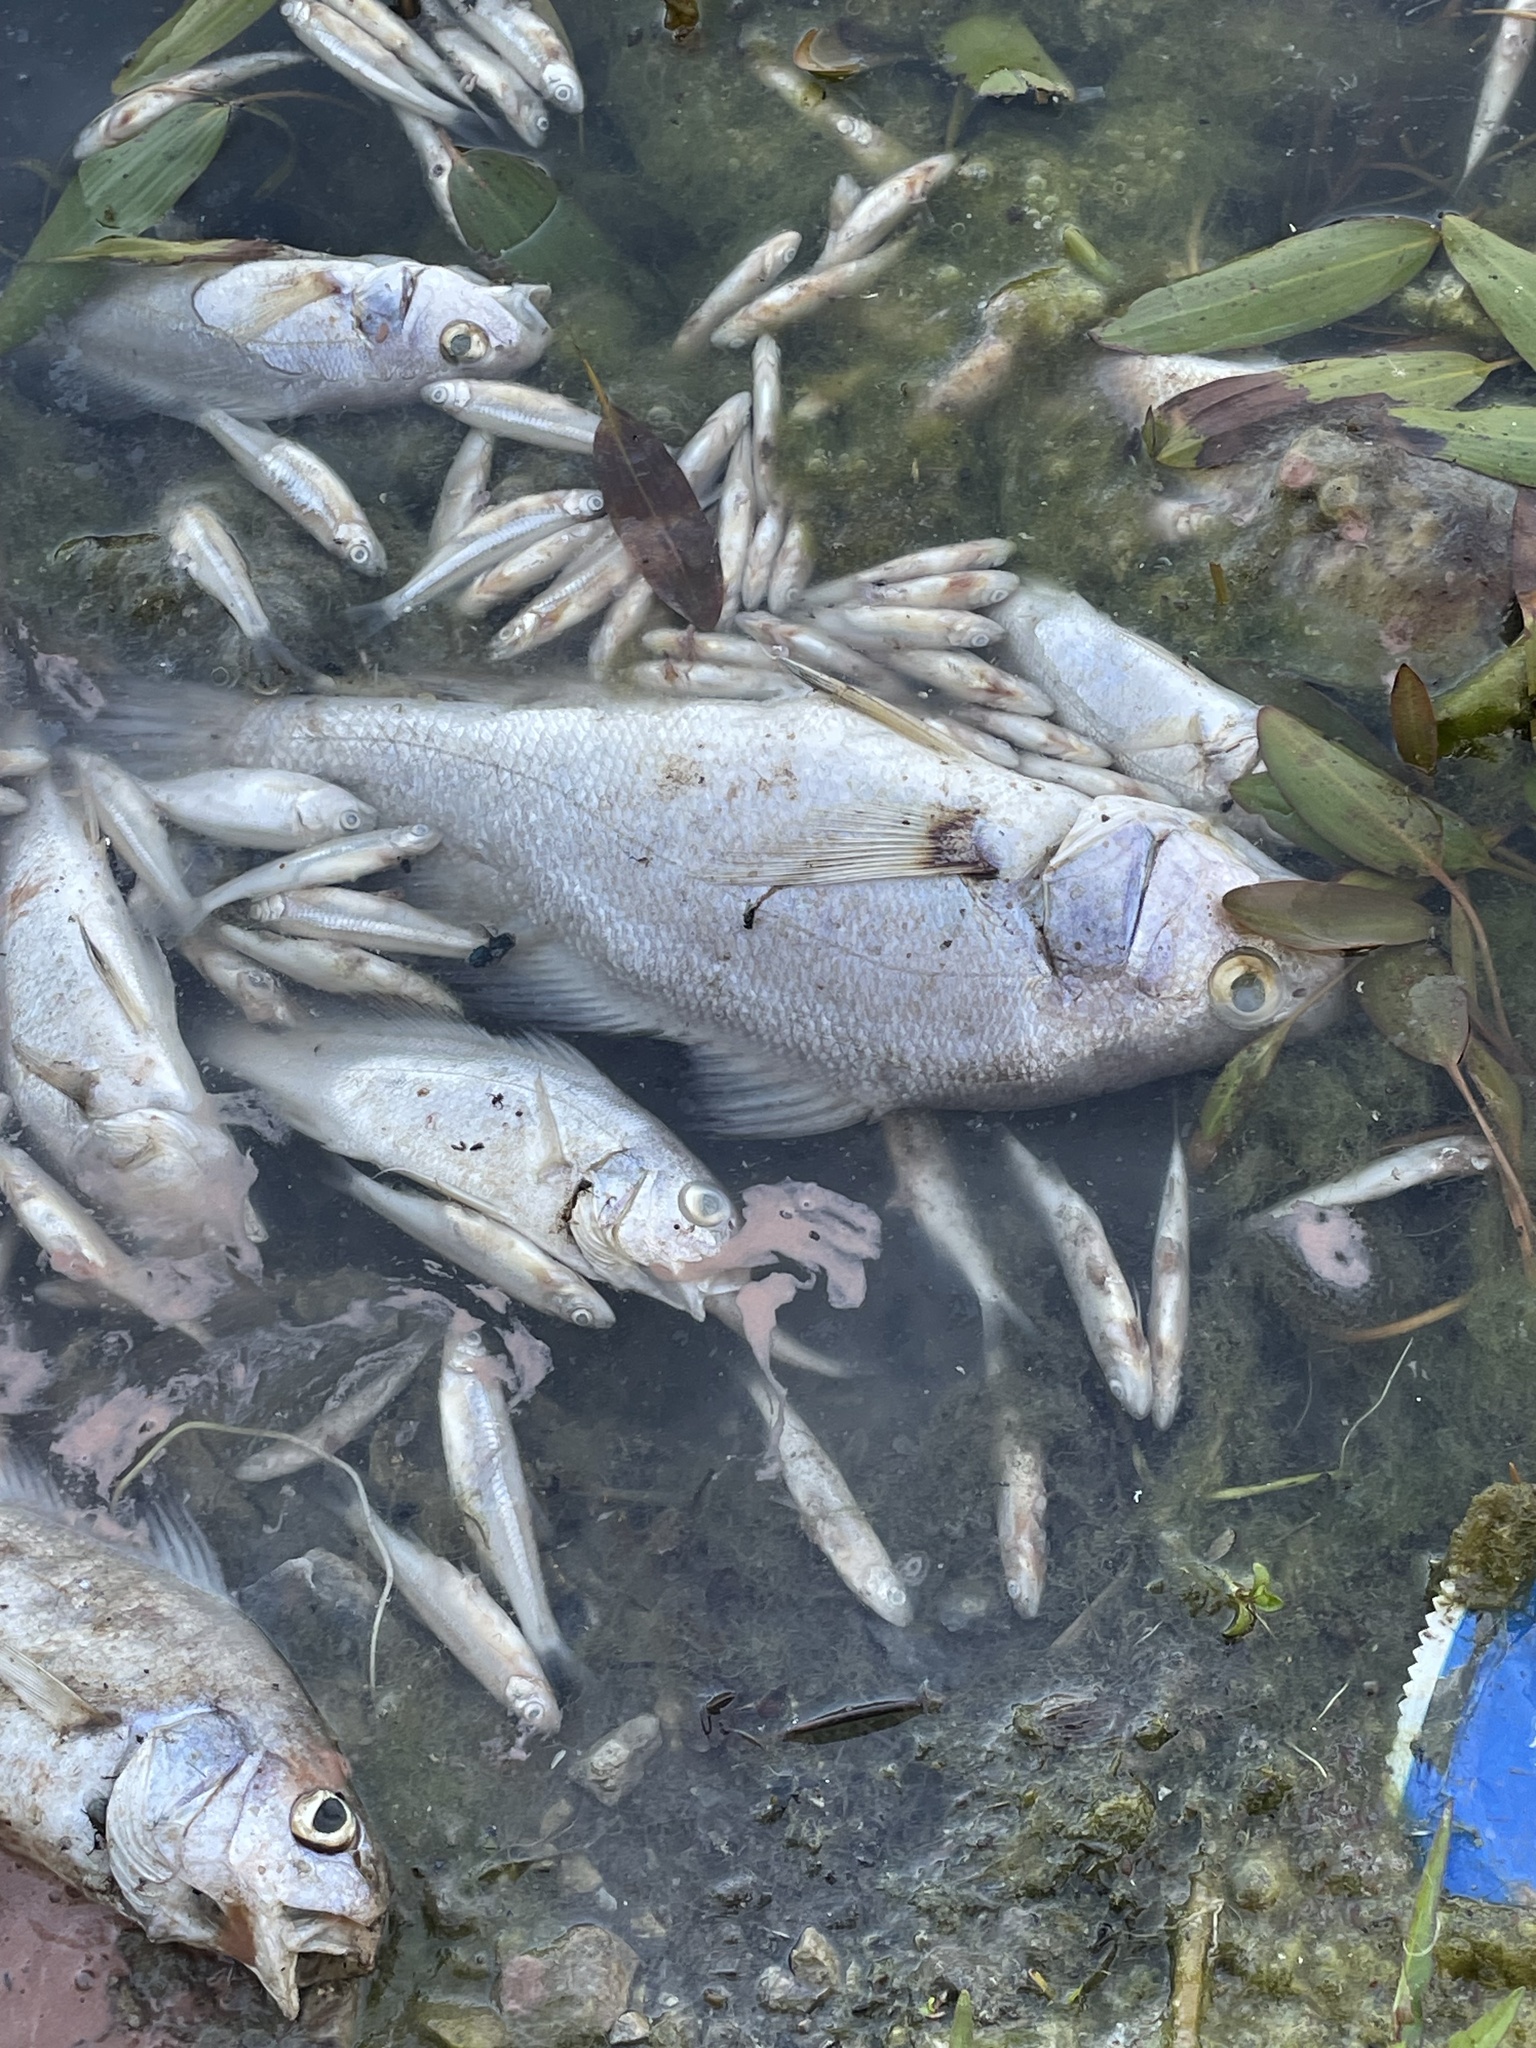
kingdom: Animalia
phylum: Chordata
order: Perciformes
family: Sciaenidae
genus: Aplodinotus
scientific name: Aplodinotus grunniens
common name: Freshwater drum
